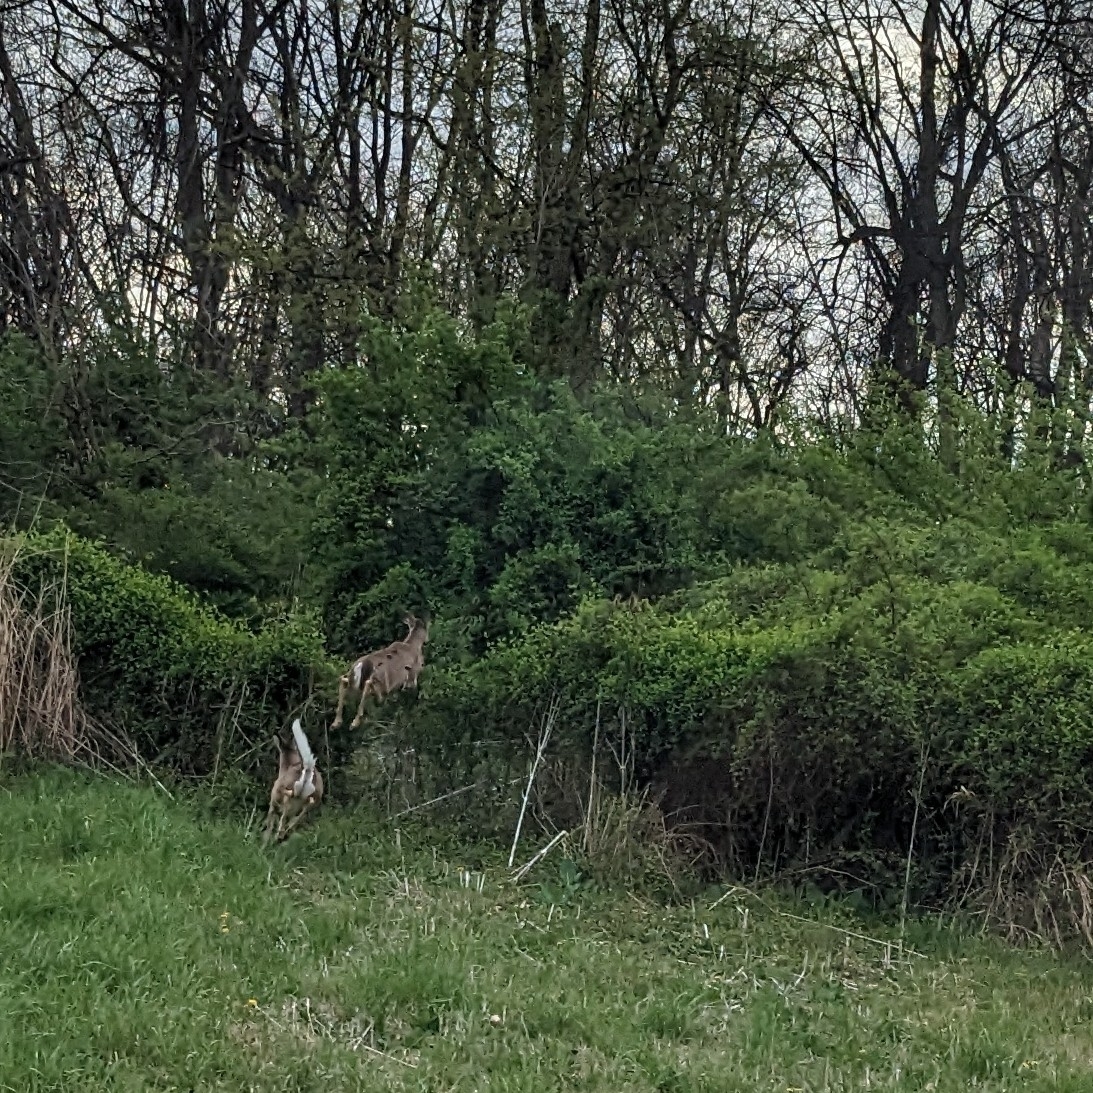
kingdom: Animalia
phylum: Chordata
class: Mammalia
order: Artiodactyla
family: Cervidae
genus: Odocoileus
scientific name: Odocoileus virginianus
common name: White-tailed deer
